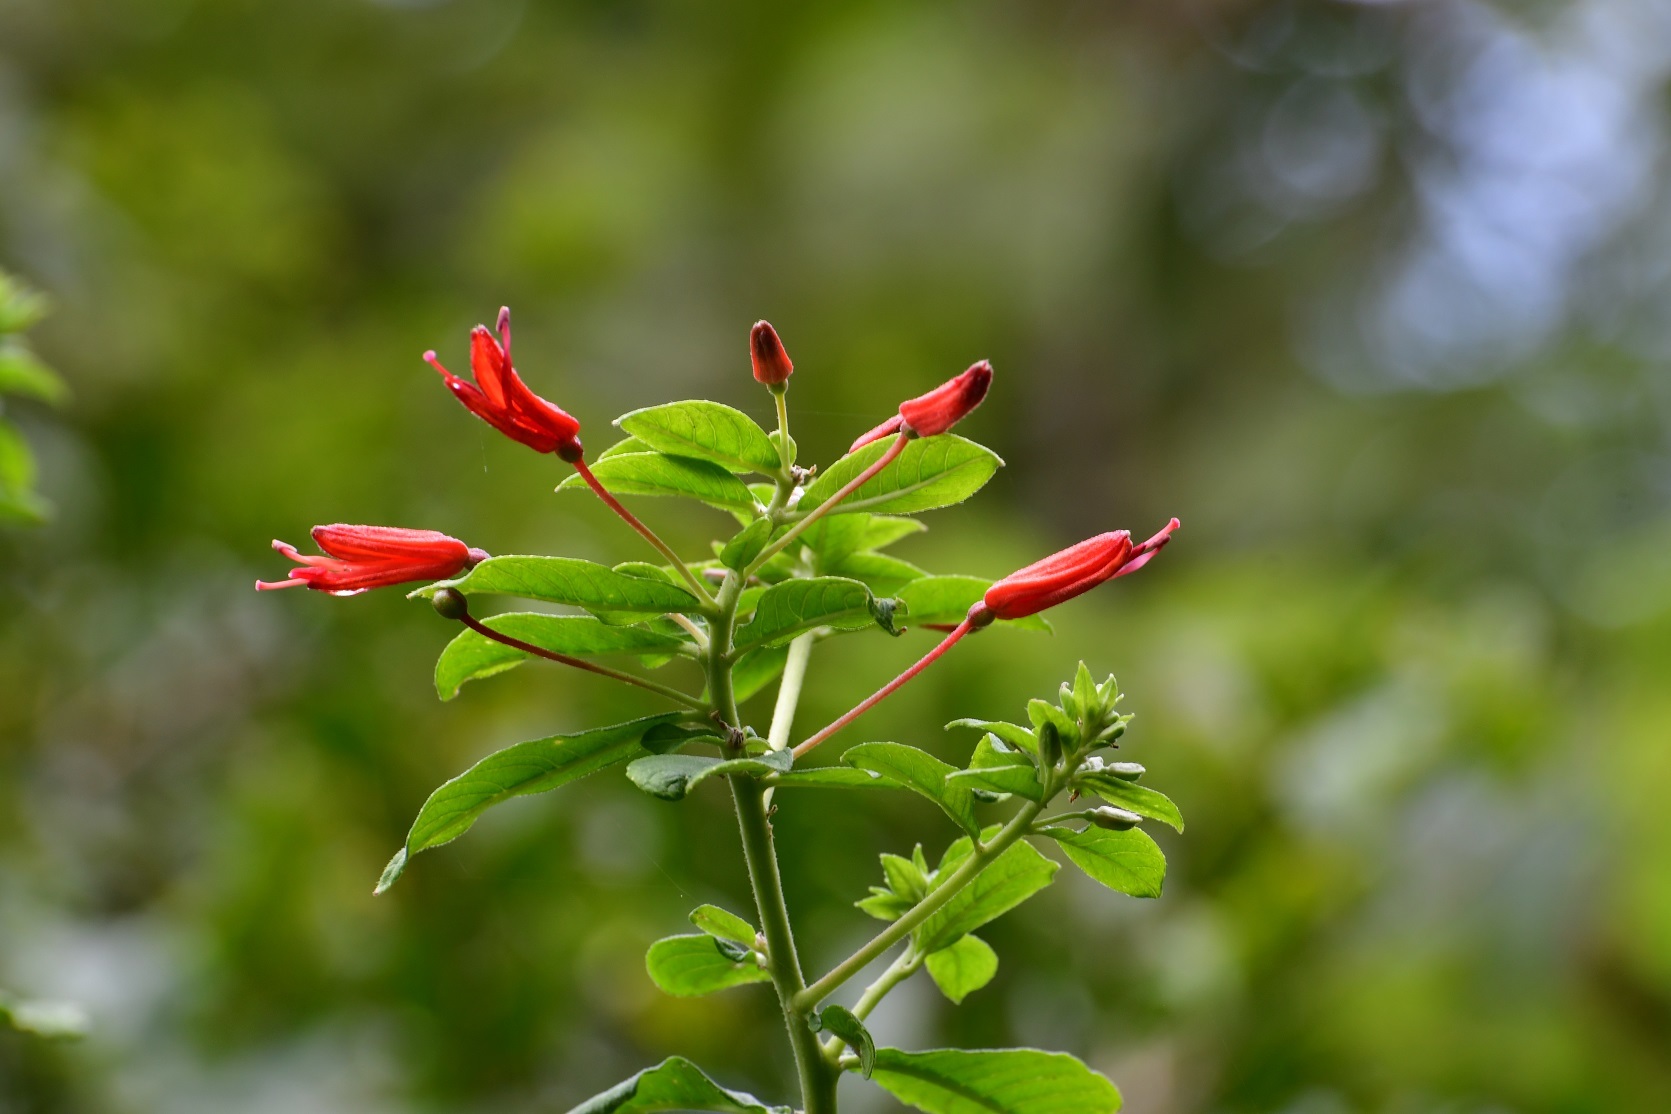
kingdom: Plantae
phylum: Tracheophyta
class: Magnoliopsida
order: Myrtales
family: Onagraceae
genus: Lopezia
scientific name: Lopezia grandiflora
